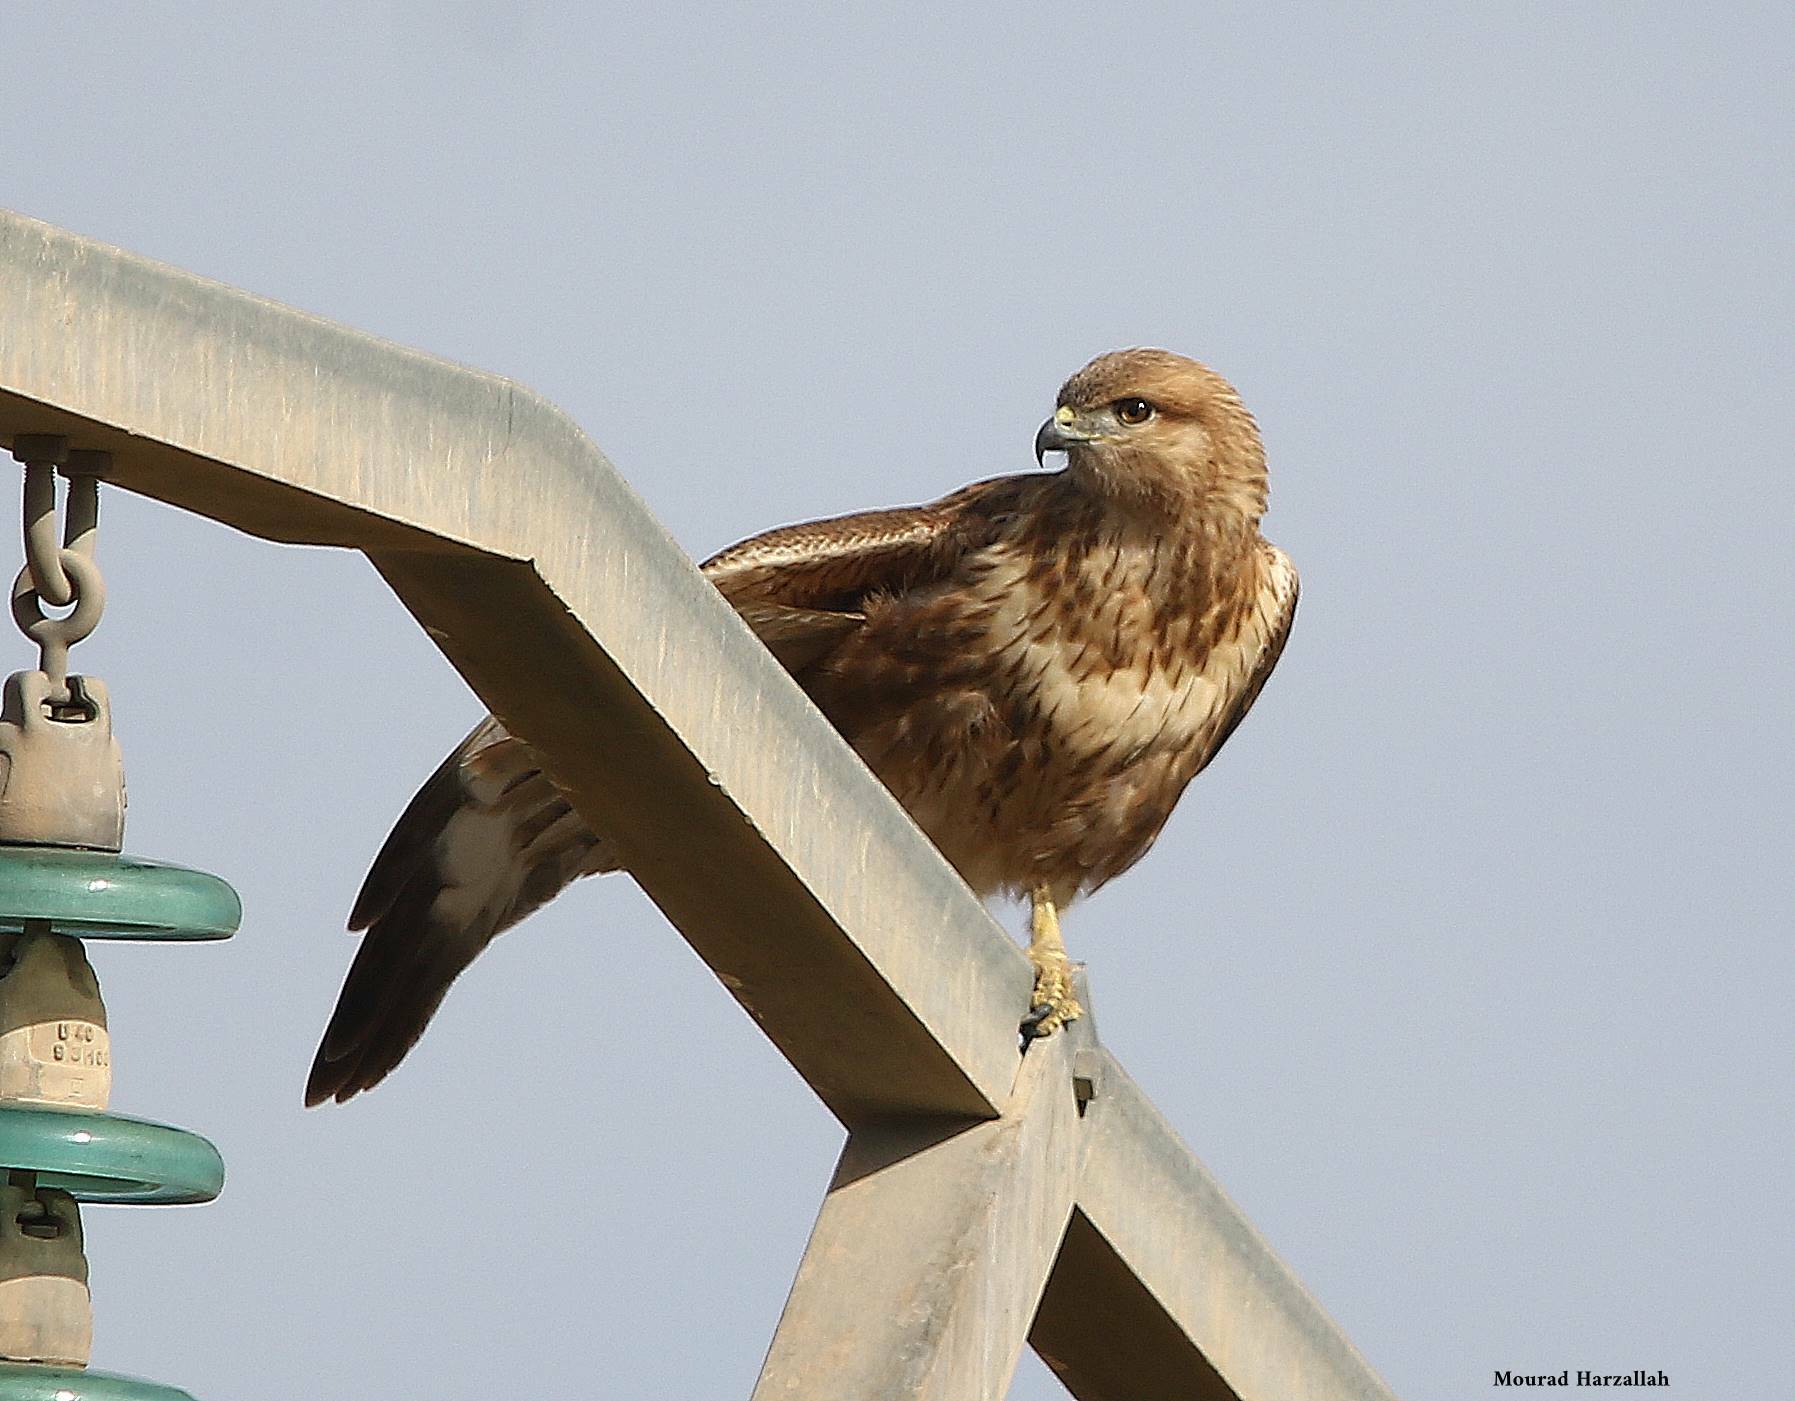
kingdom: Animalia
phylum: Chordata
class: Aves
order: Accipitriformes
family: Accipitridae
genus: Buteo
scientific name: Buteo rufinus
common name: Long-legged buzzard
